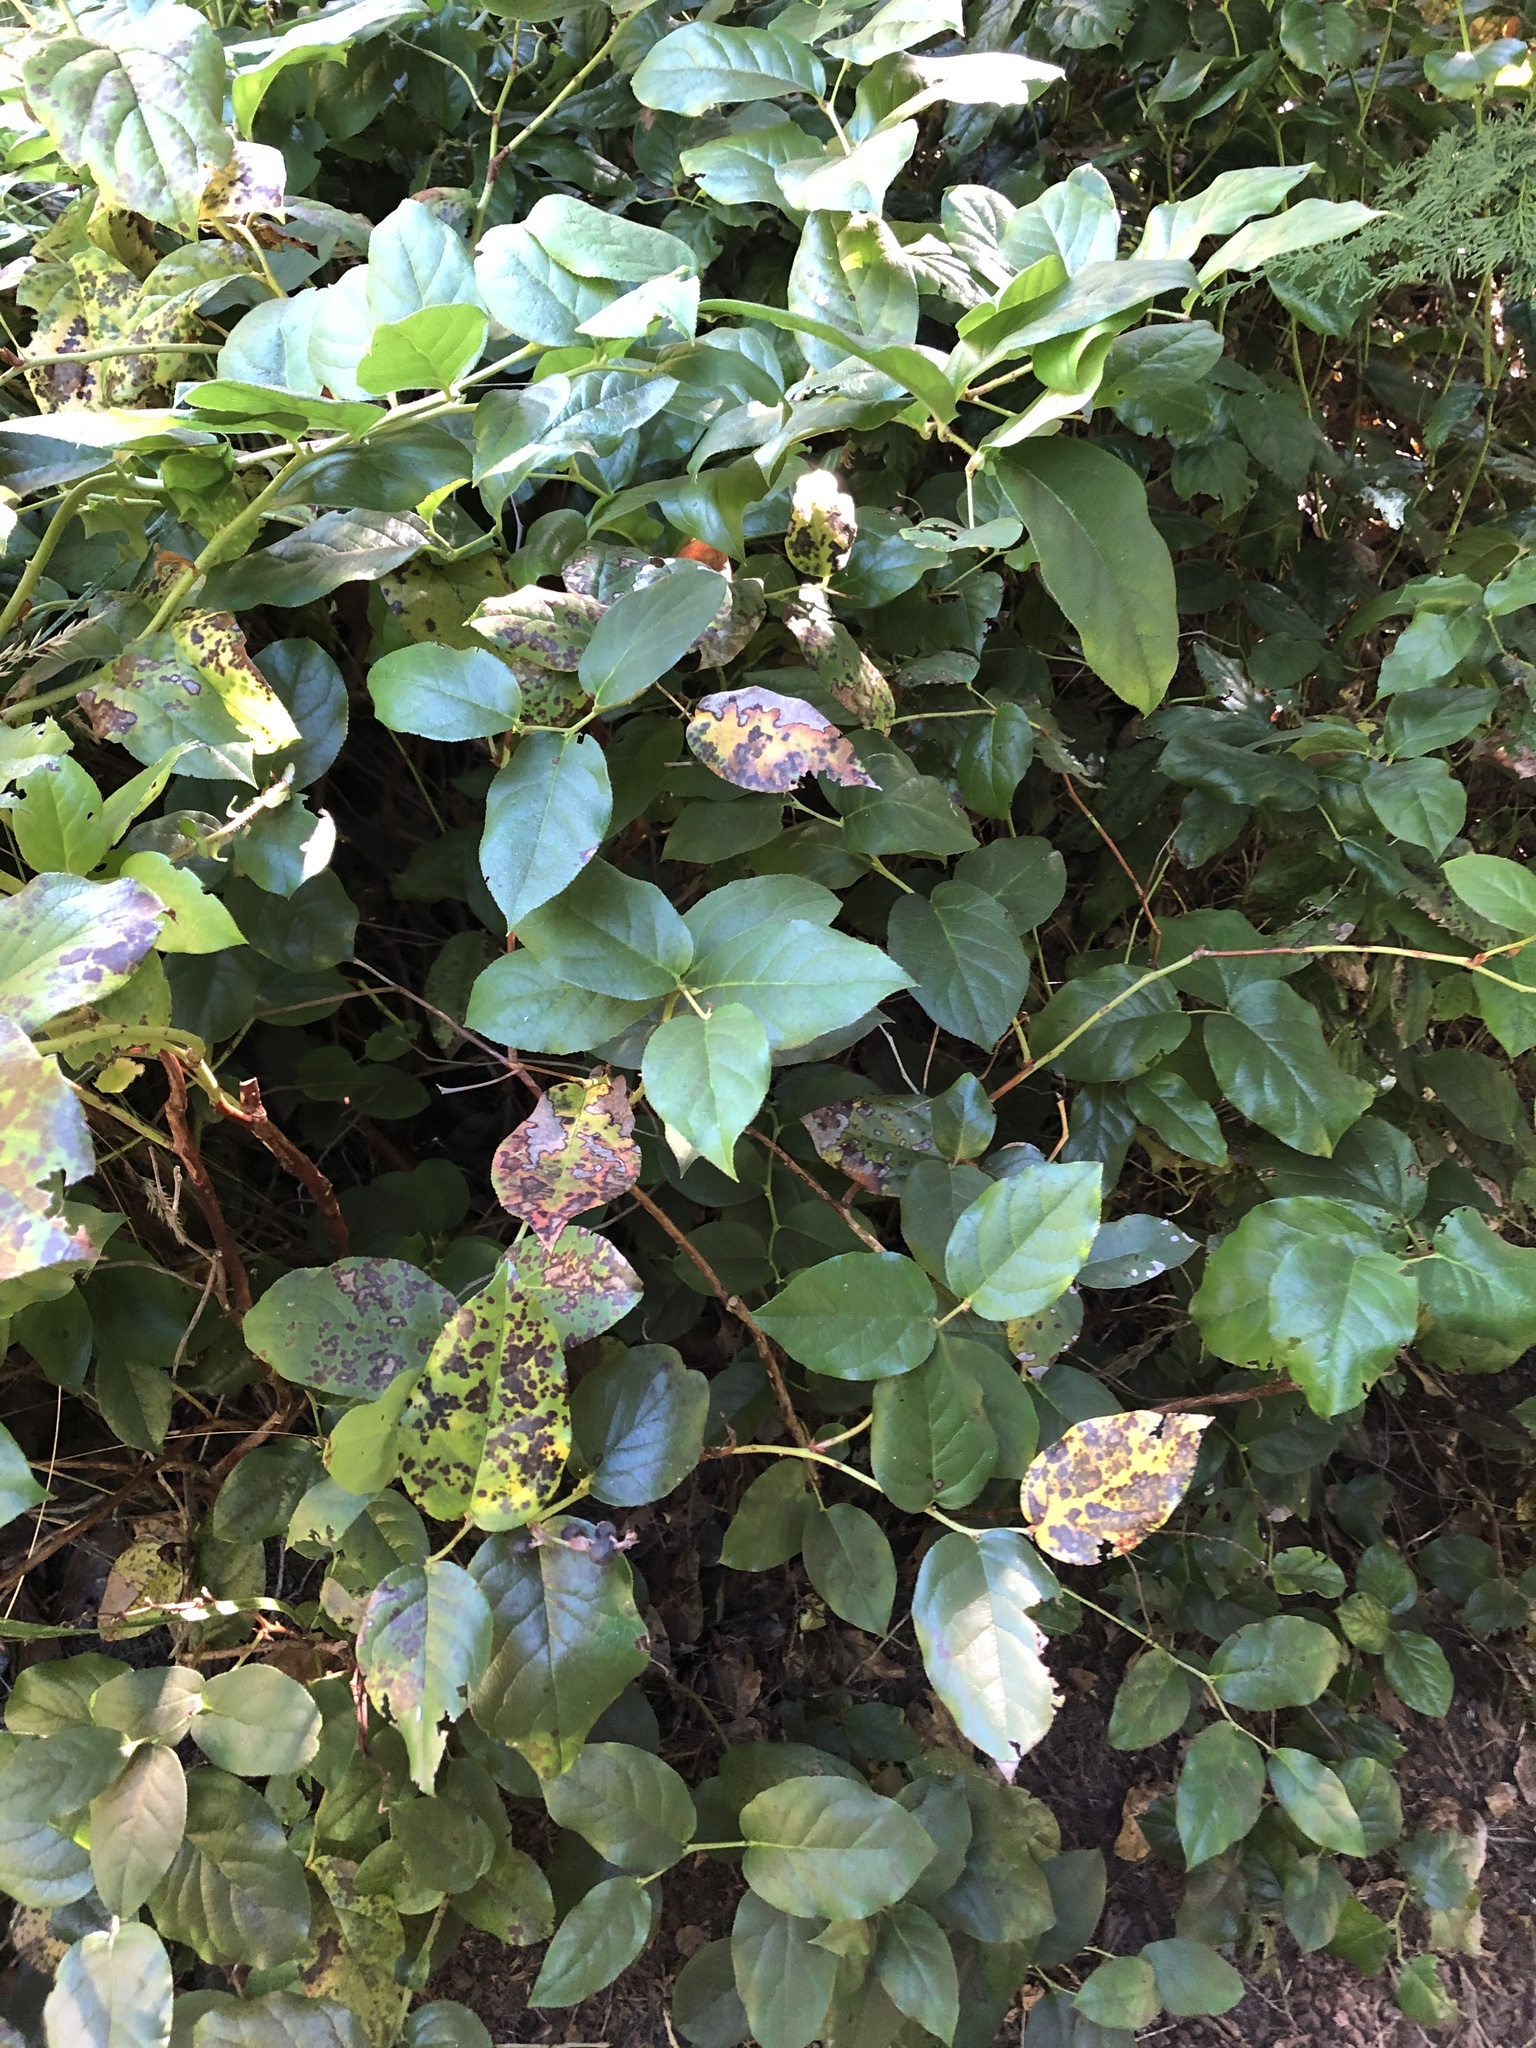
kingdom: Plantae
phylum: Tracheophyta
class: Magnoliopsida
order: Ericales
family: Ericaceae
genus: Gaultheria
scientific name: Gaultheria shallon
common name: Shallon
